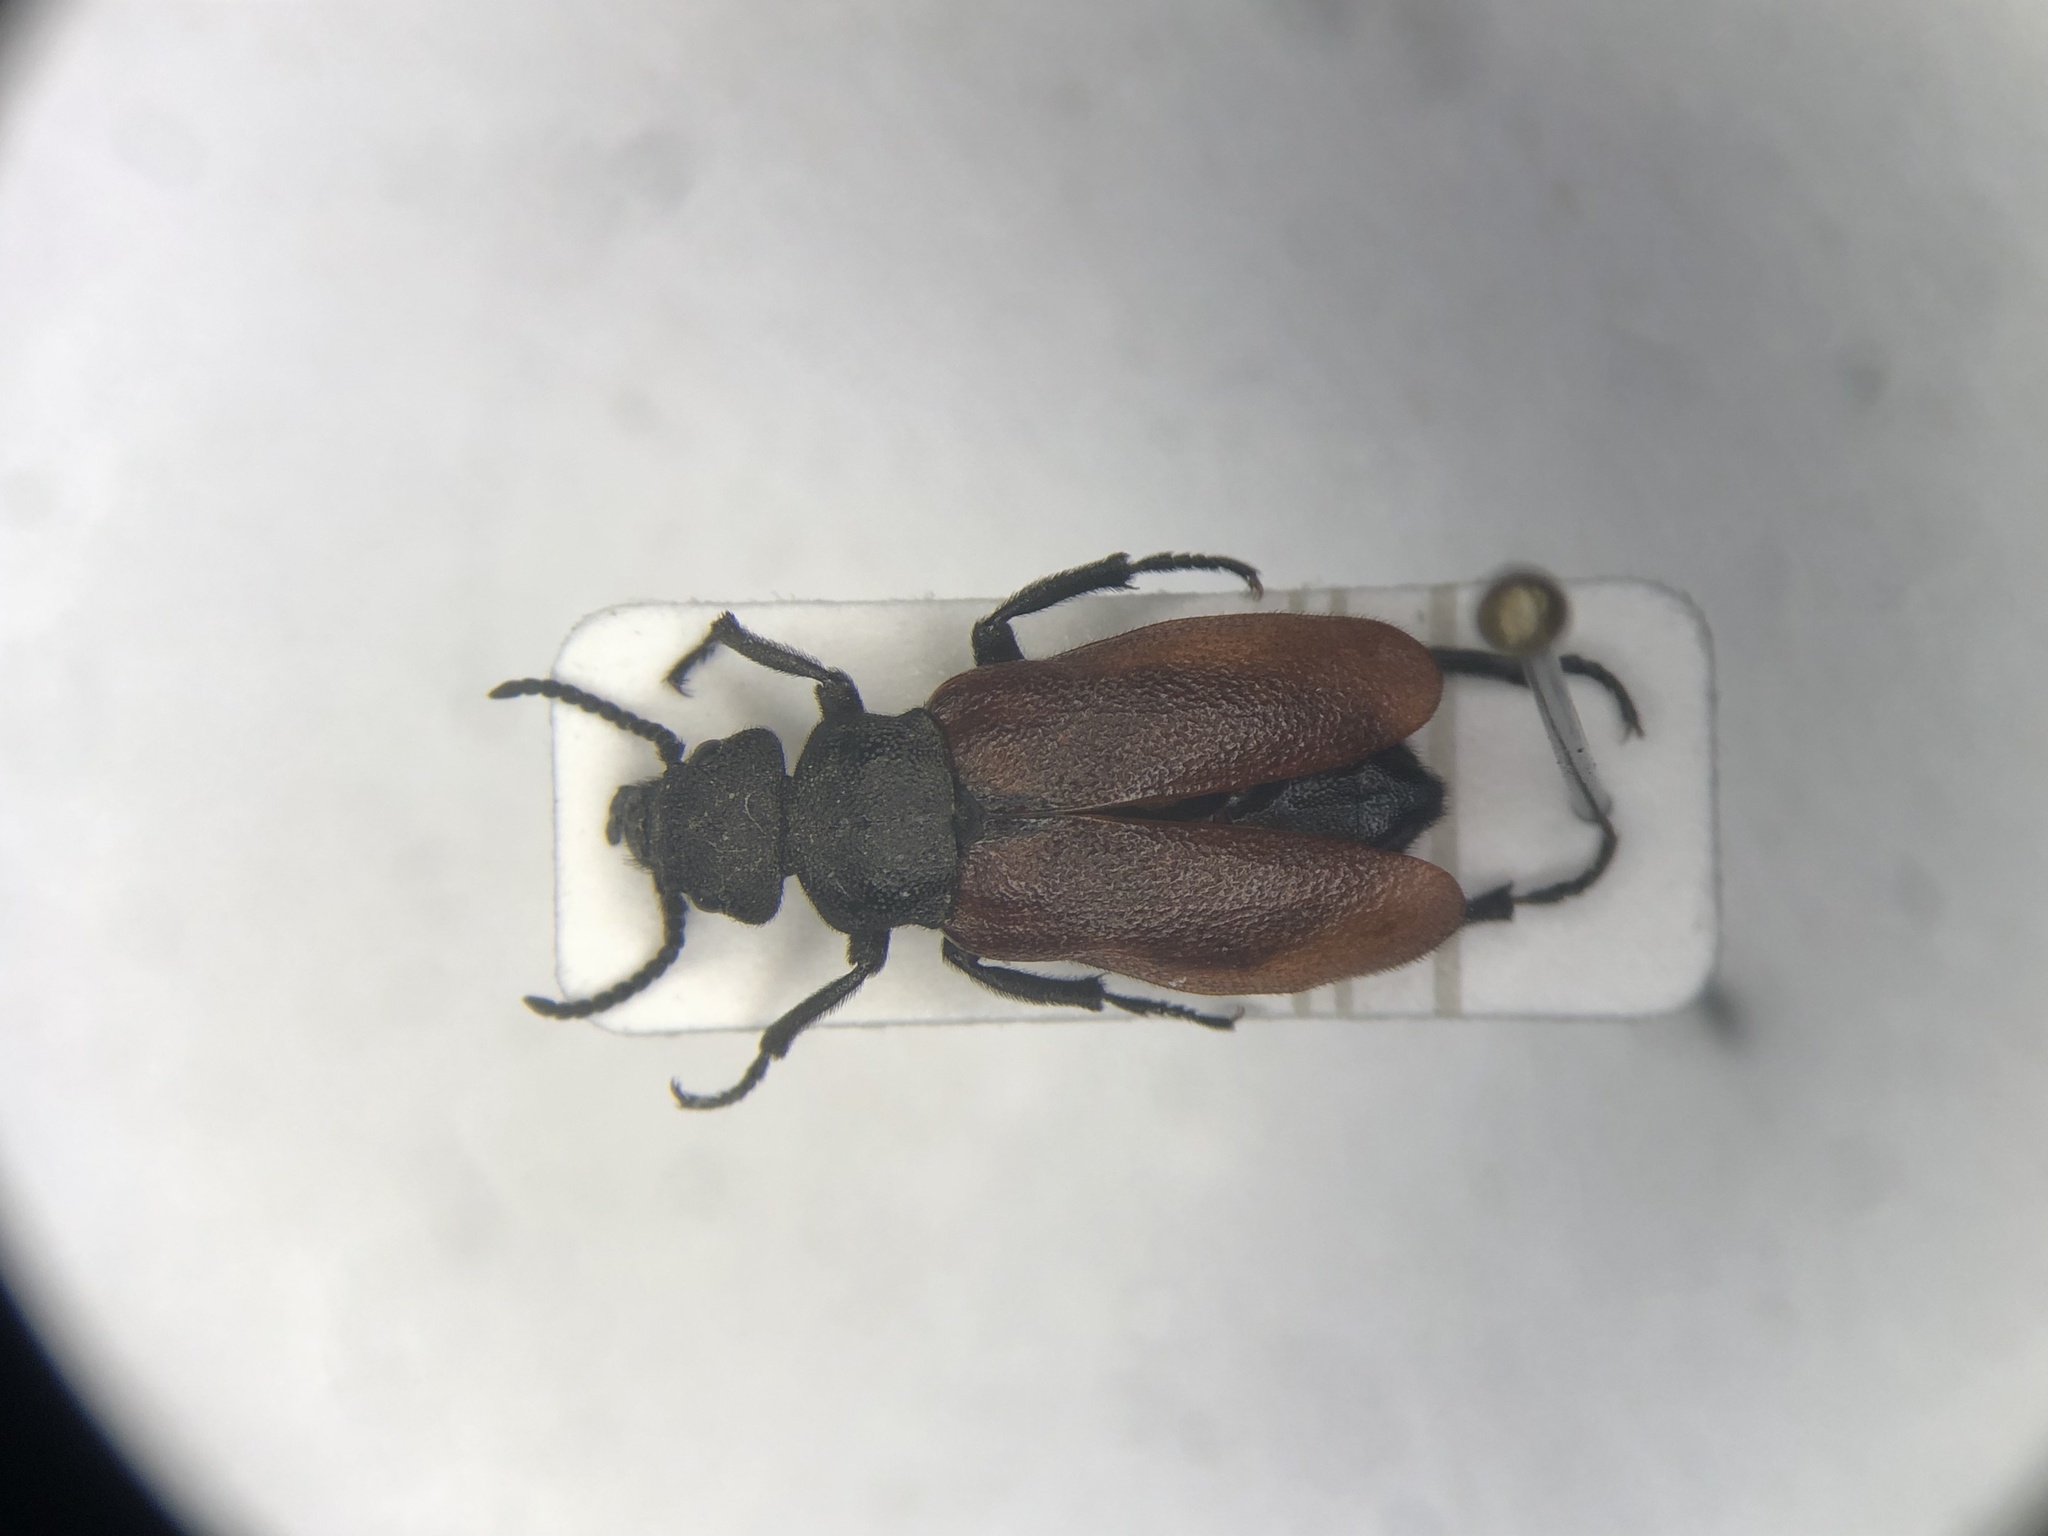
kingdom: Animalia
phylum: Arthropoda
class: Insecta
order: Coleoptera
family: Meloidae
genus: Tricrania
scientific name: Tricrania sanguinipennis
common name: Blood-winged blister beetle
